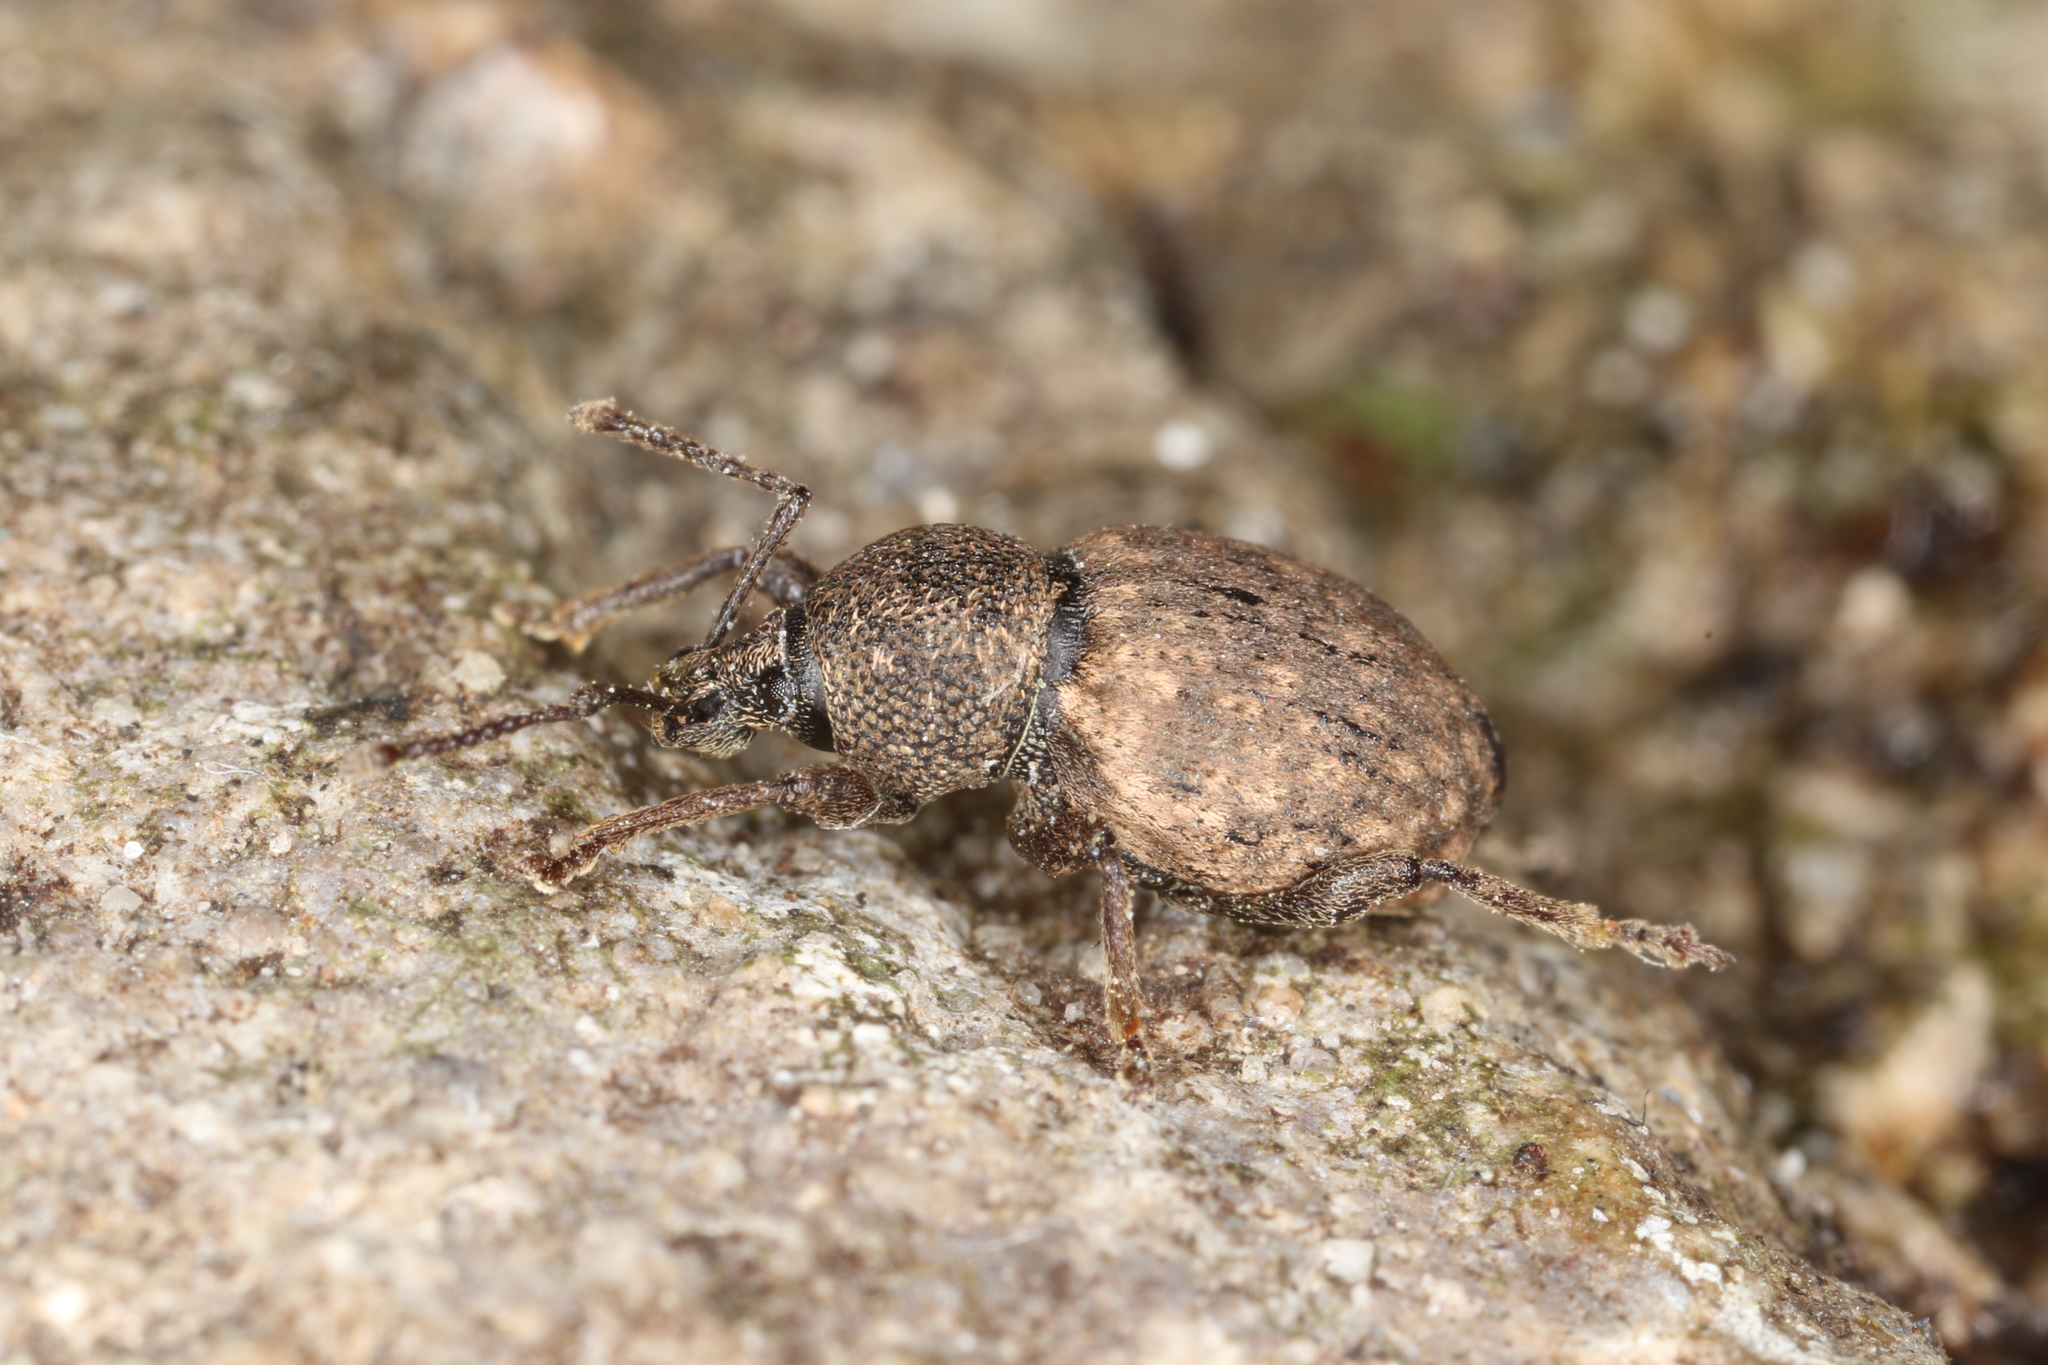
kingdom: Animalia
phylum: Arthropoda
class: Insecta
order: Coleoptera
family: Curculionidae
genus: Otiorhynchus
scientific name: Otiorhynchus raucus
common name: Weevil
